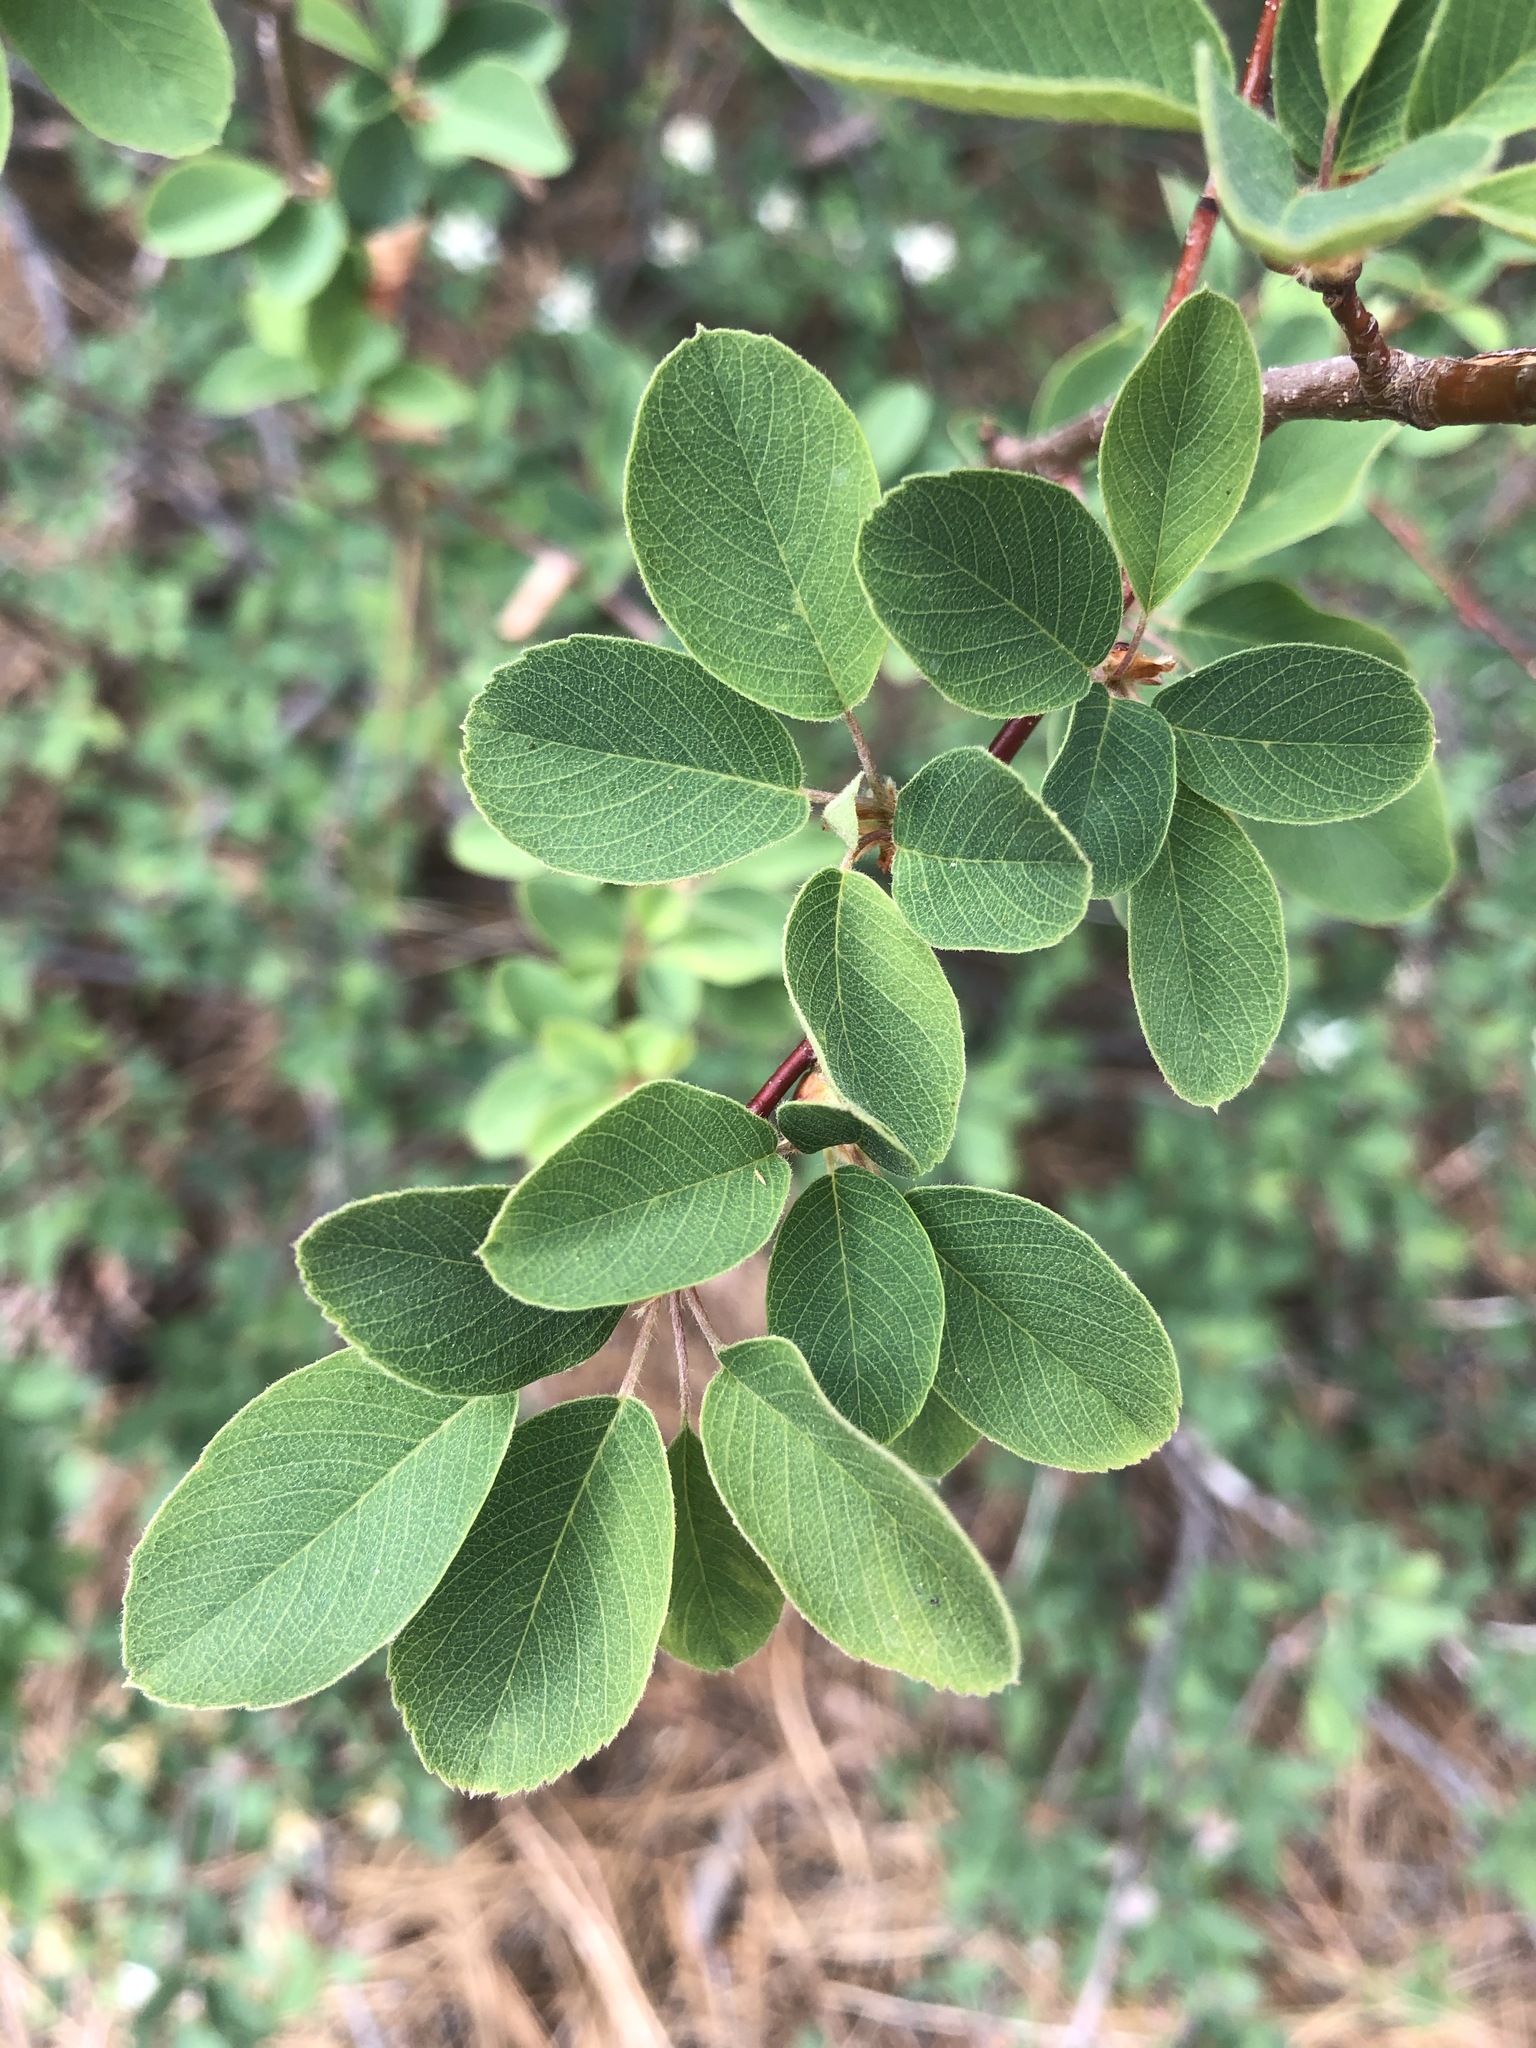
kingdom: Plantae
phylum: Tracheophyta
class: Magnoliopsida
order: Rosales
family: Rosaceae
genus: Amelanchier
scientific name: Amelanchier utahensis
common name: Utah serviceberry
